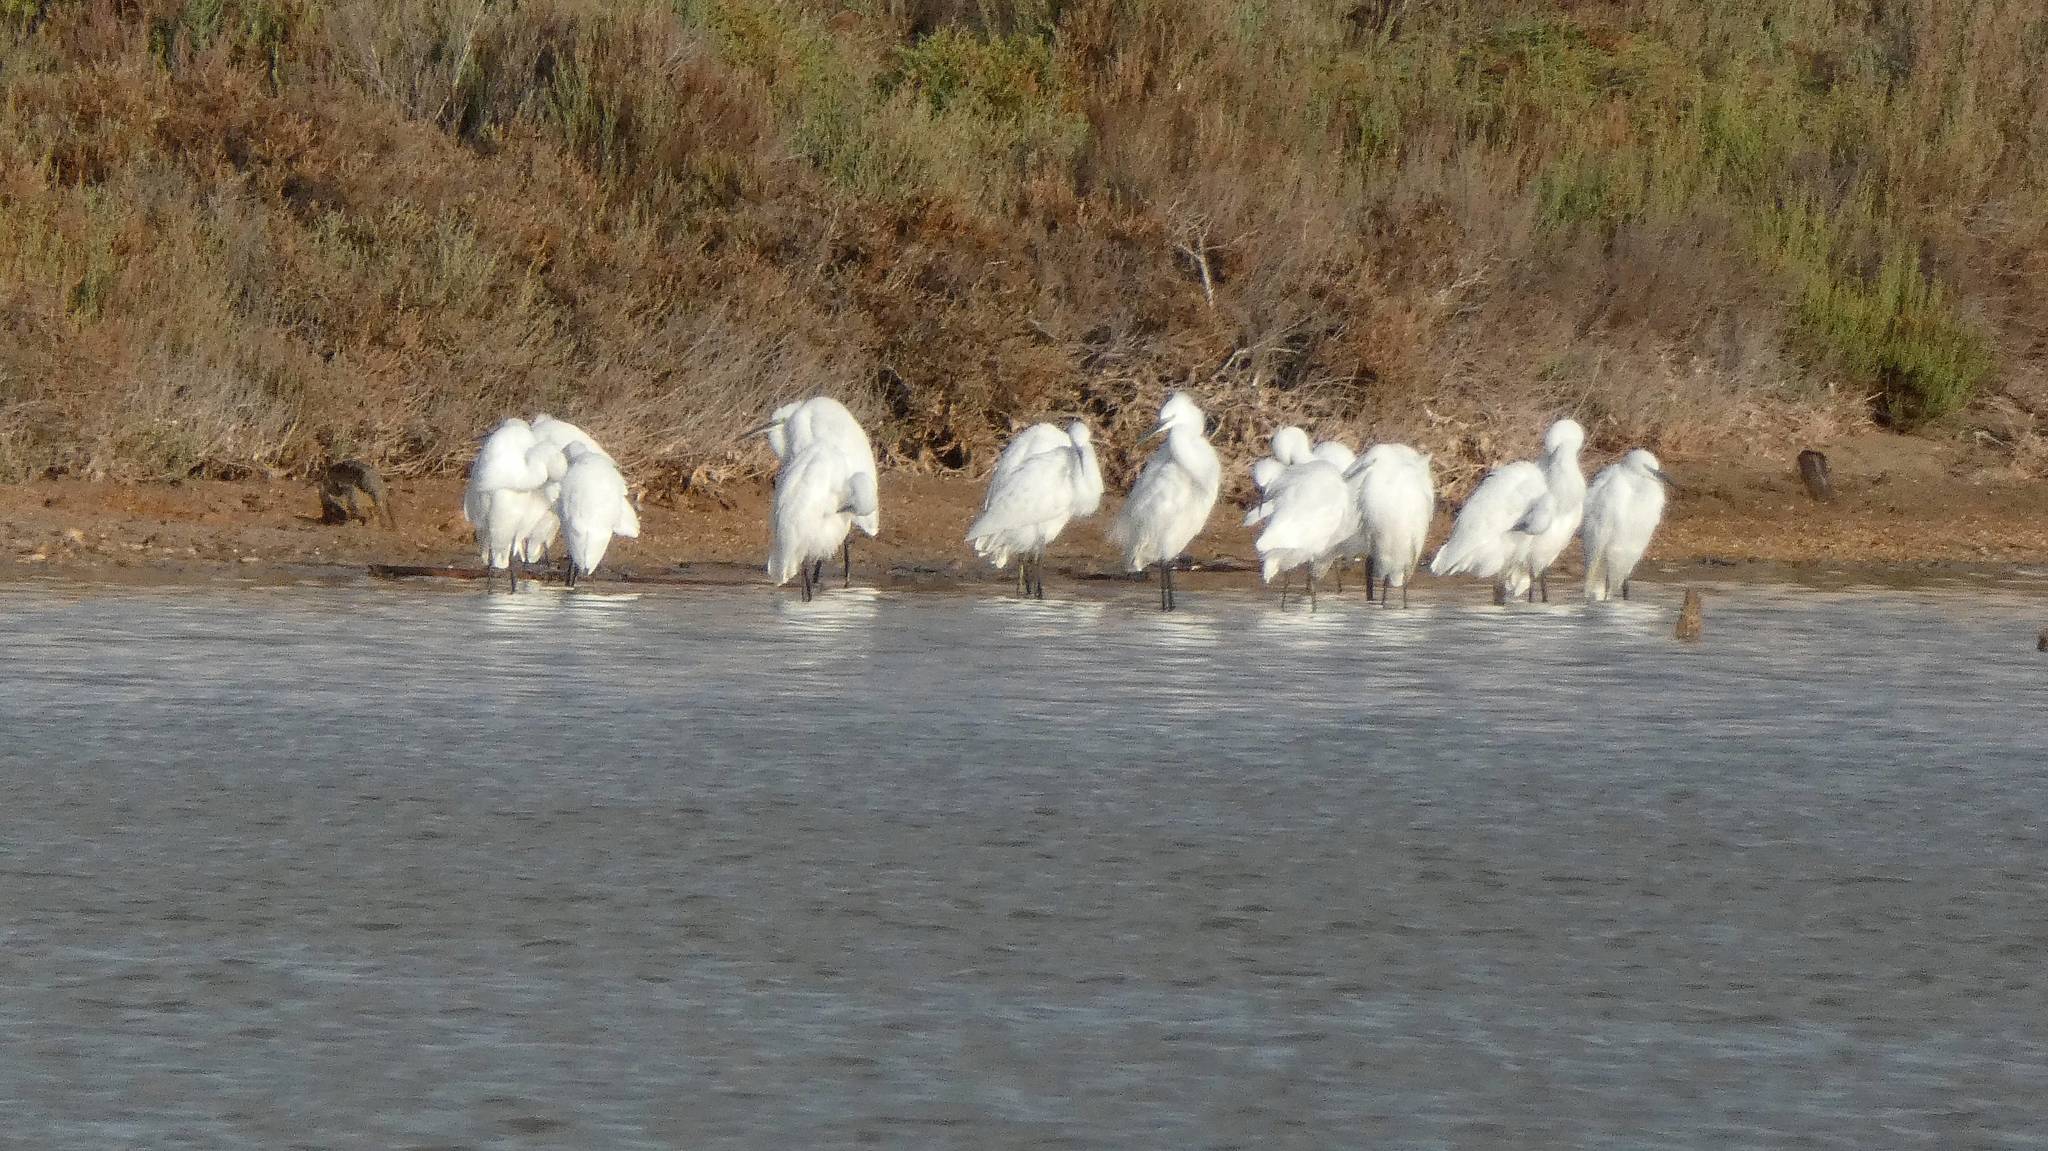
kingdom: Animalia
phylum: Chordata
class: Aves
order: Pelecaniformes
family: Ardeidae
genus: Egretta
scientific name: Egretta garzetta
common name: Little egret
